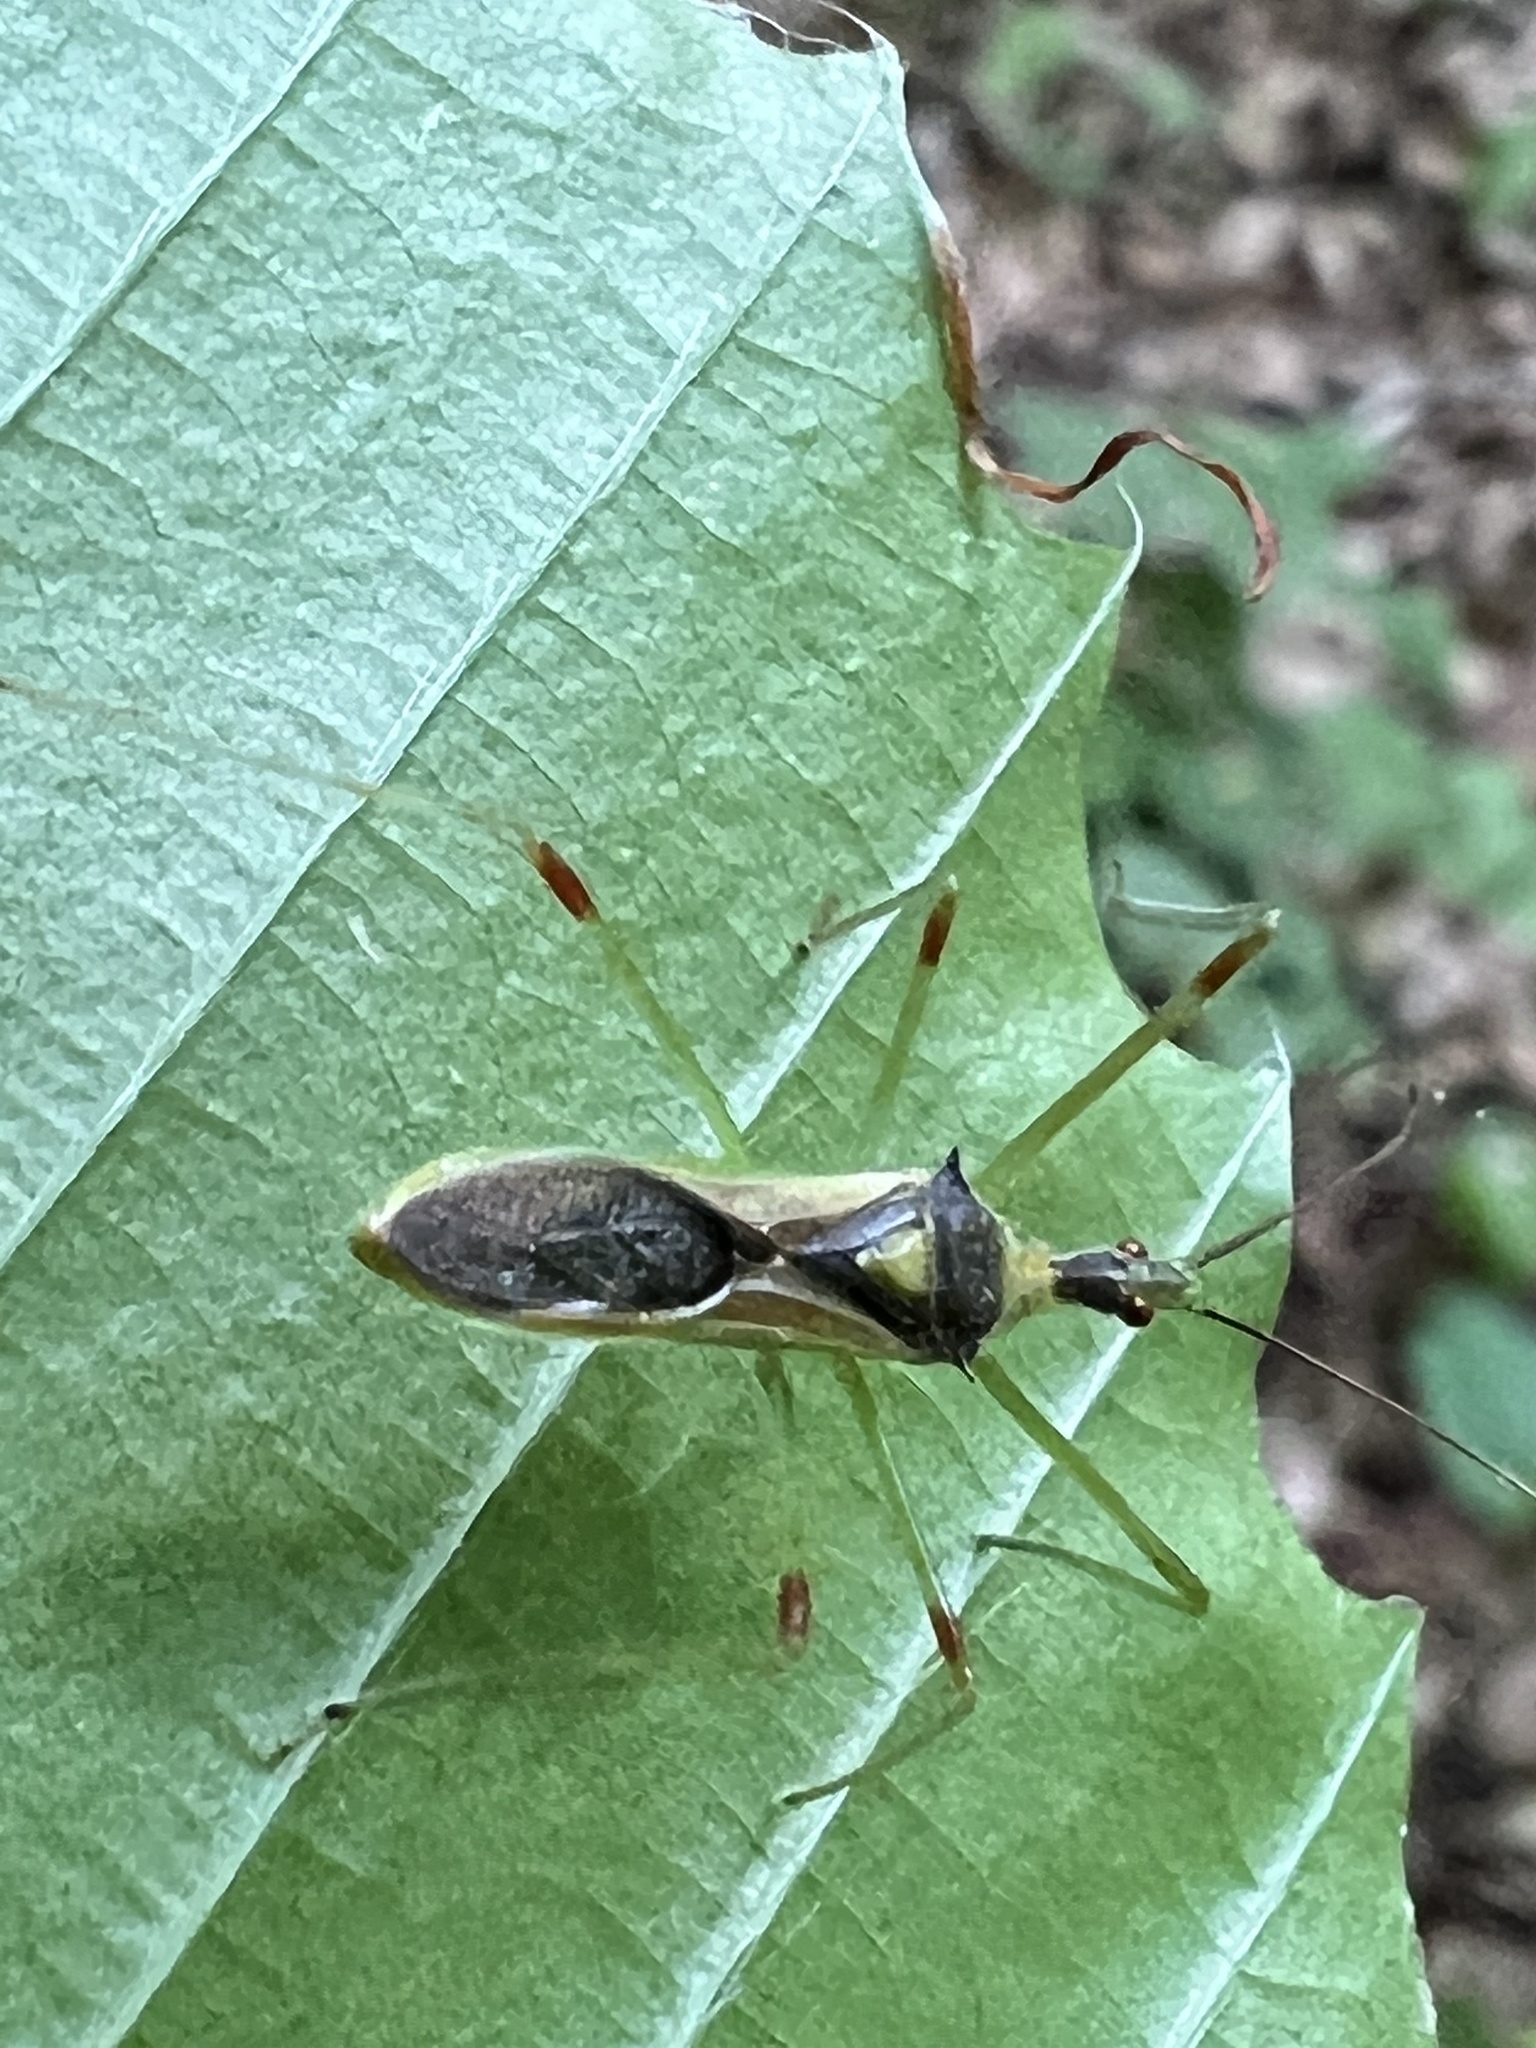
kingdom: Animalia
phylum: Arthropoda
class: Insecta
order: Hemiptera
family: Reduviidae
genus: Zelus
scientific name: Zelus luridus
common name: Pale green assassin bug
